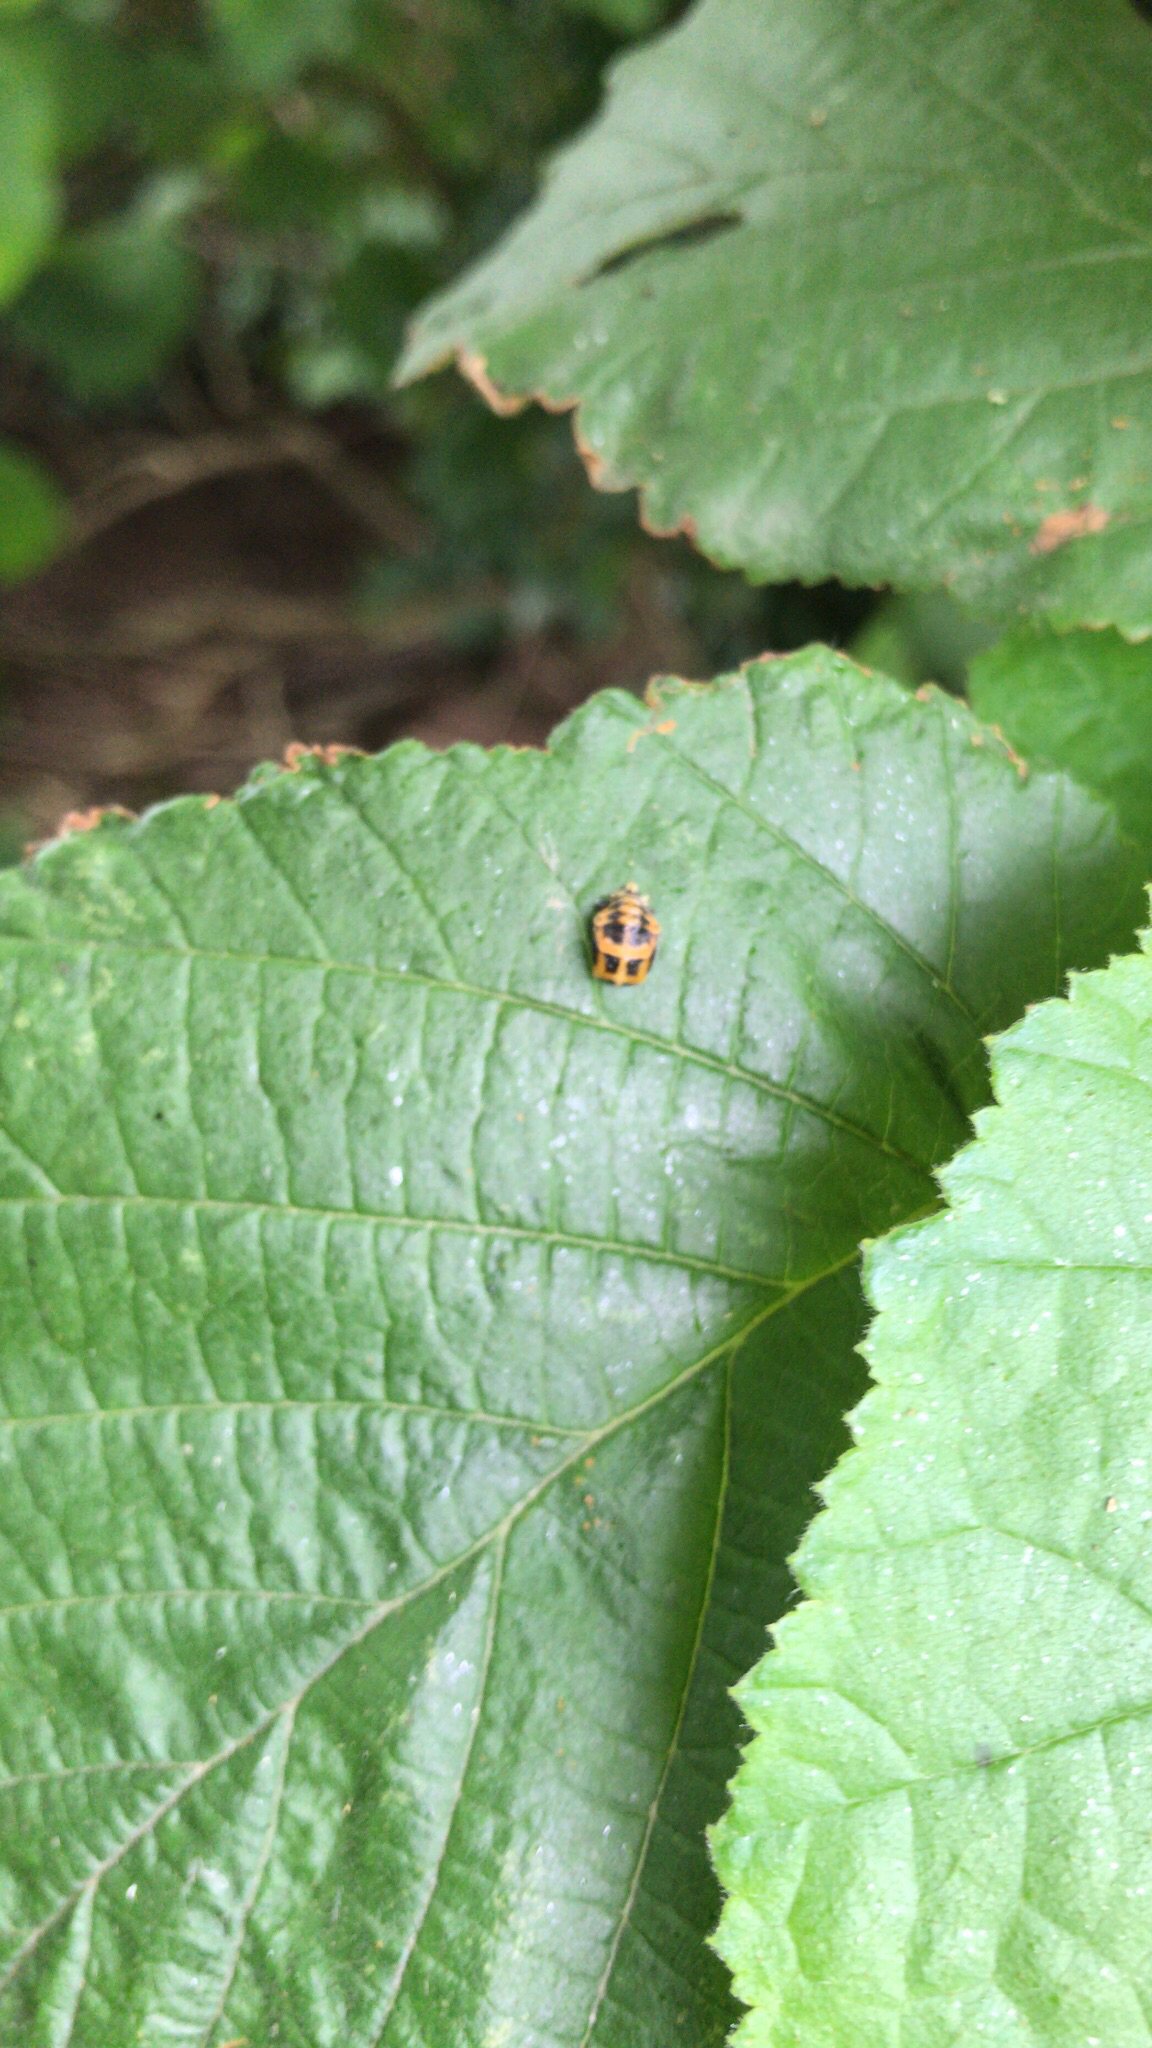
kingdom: Animalia
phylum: Arthropoda
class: Insecta
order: Coleoptera
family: Coccinellidae
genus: Harmonia
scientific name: Harmonia axyridis
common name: Harlequin ladybird
